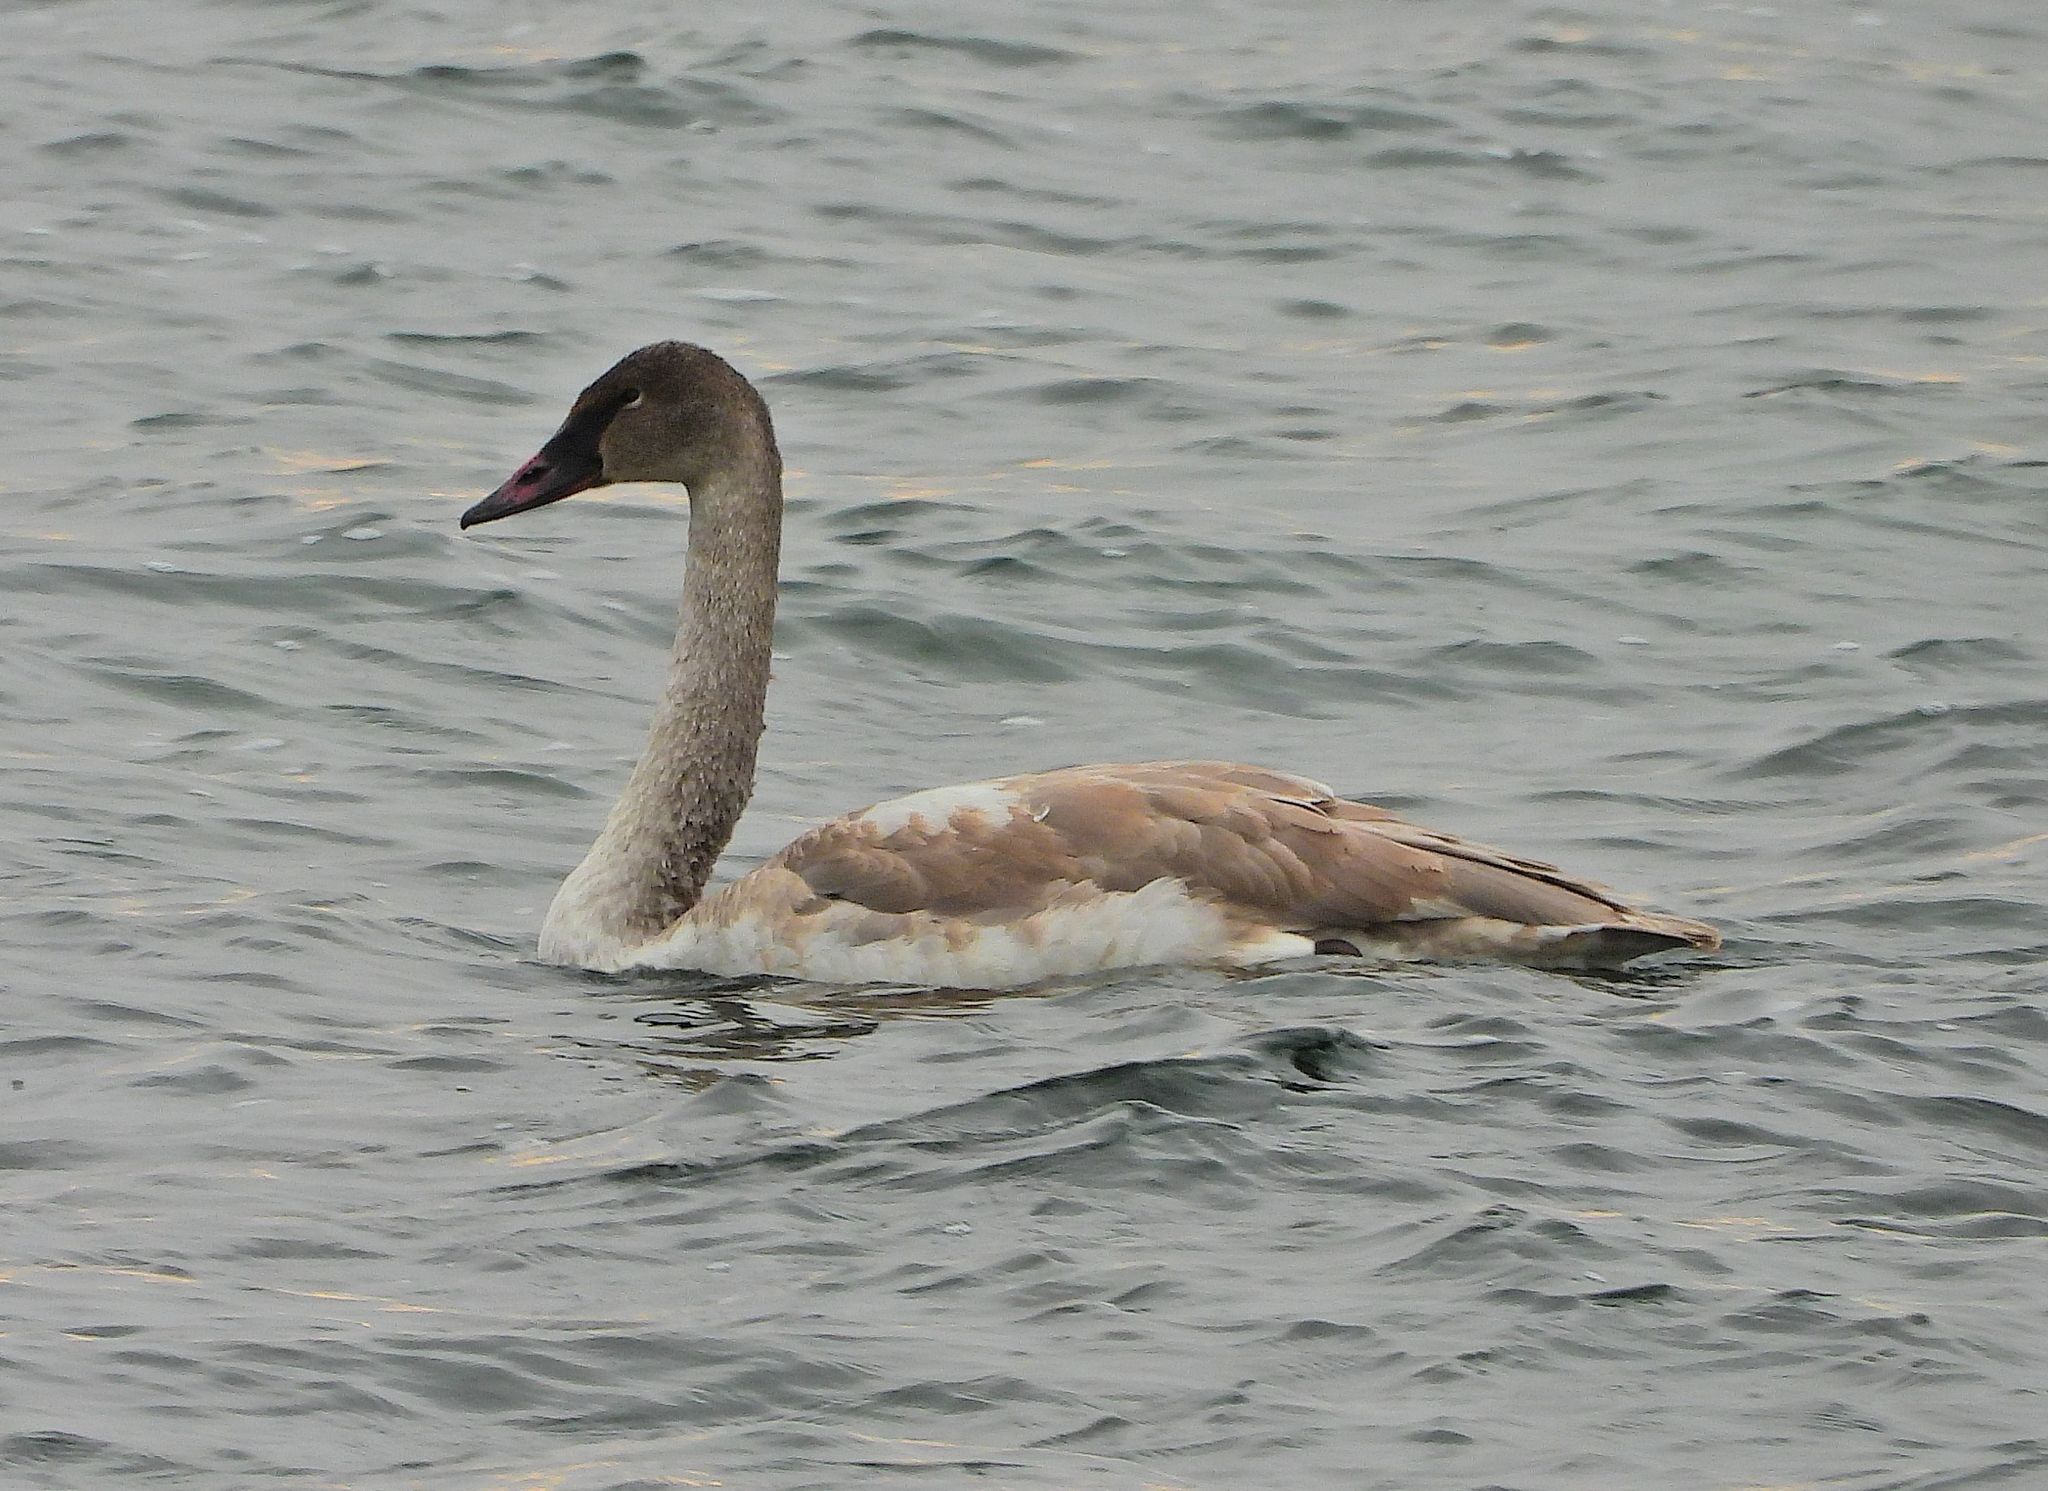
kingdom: Animalia
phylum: Chordata
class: Aves
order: Anseriformes
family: Anatidae
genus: Cygnus
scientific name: Cygnus columbianus
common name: Tundra swan
